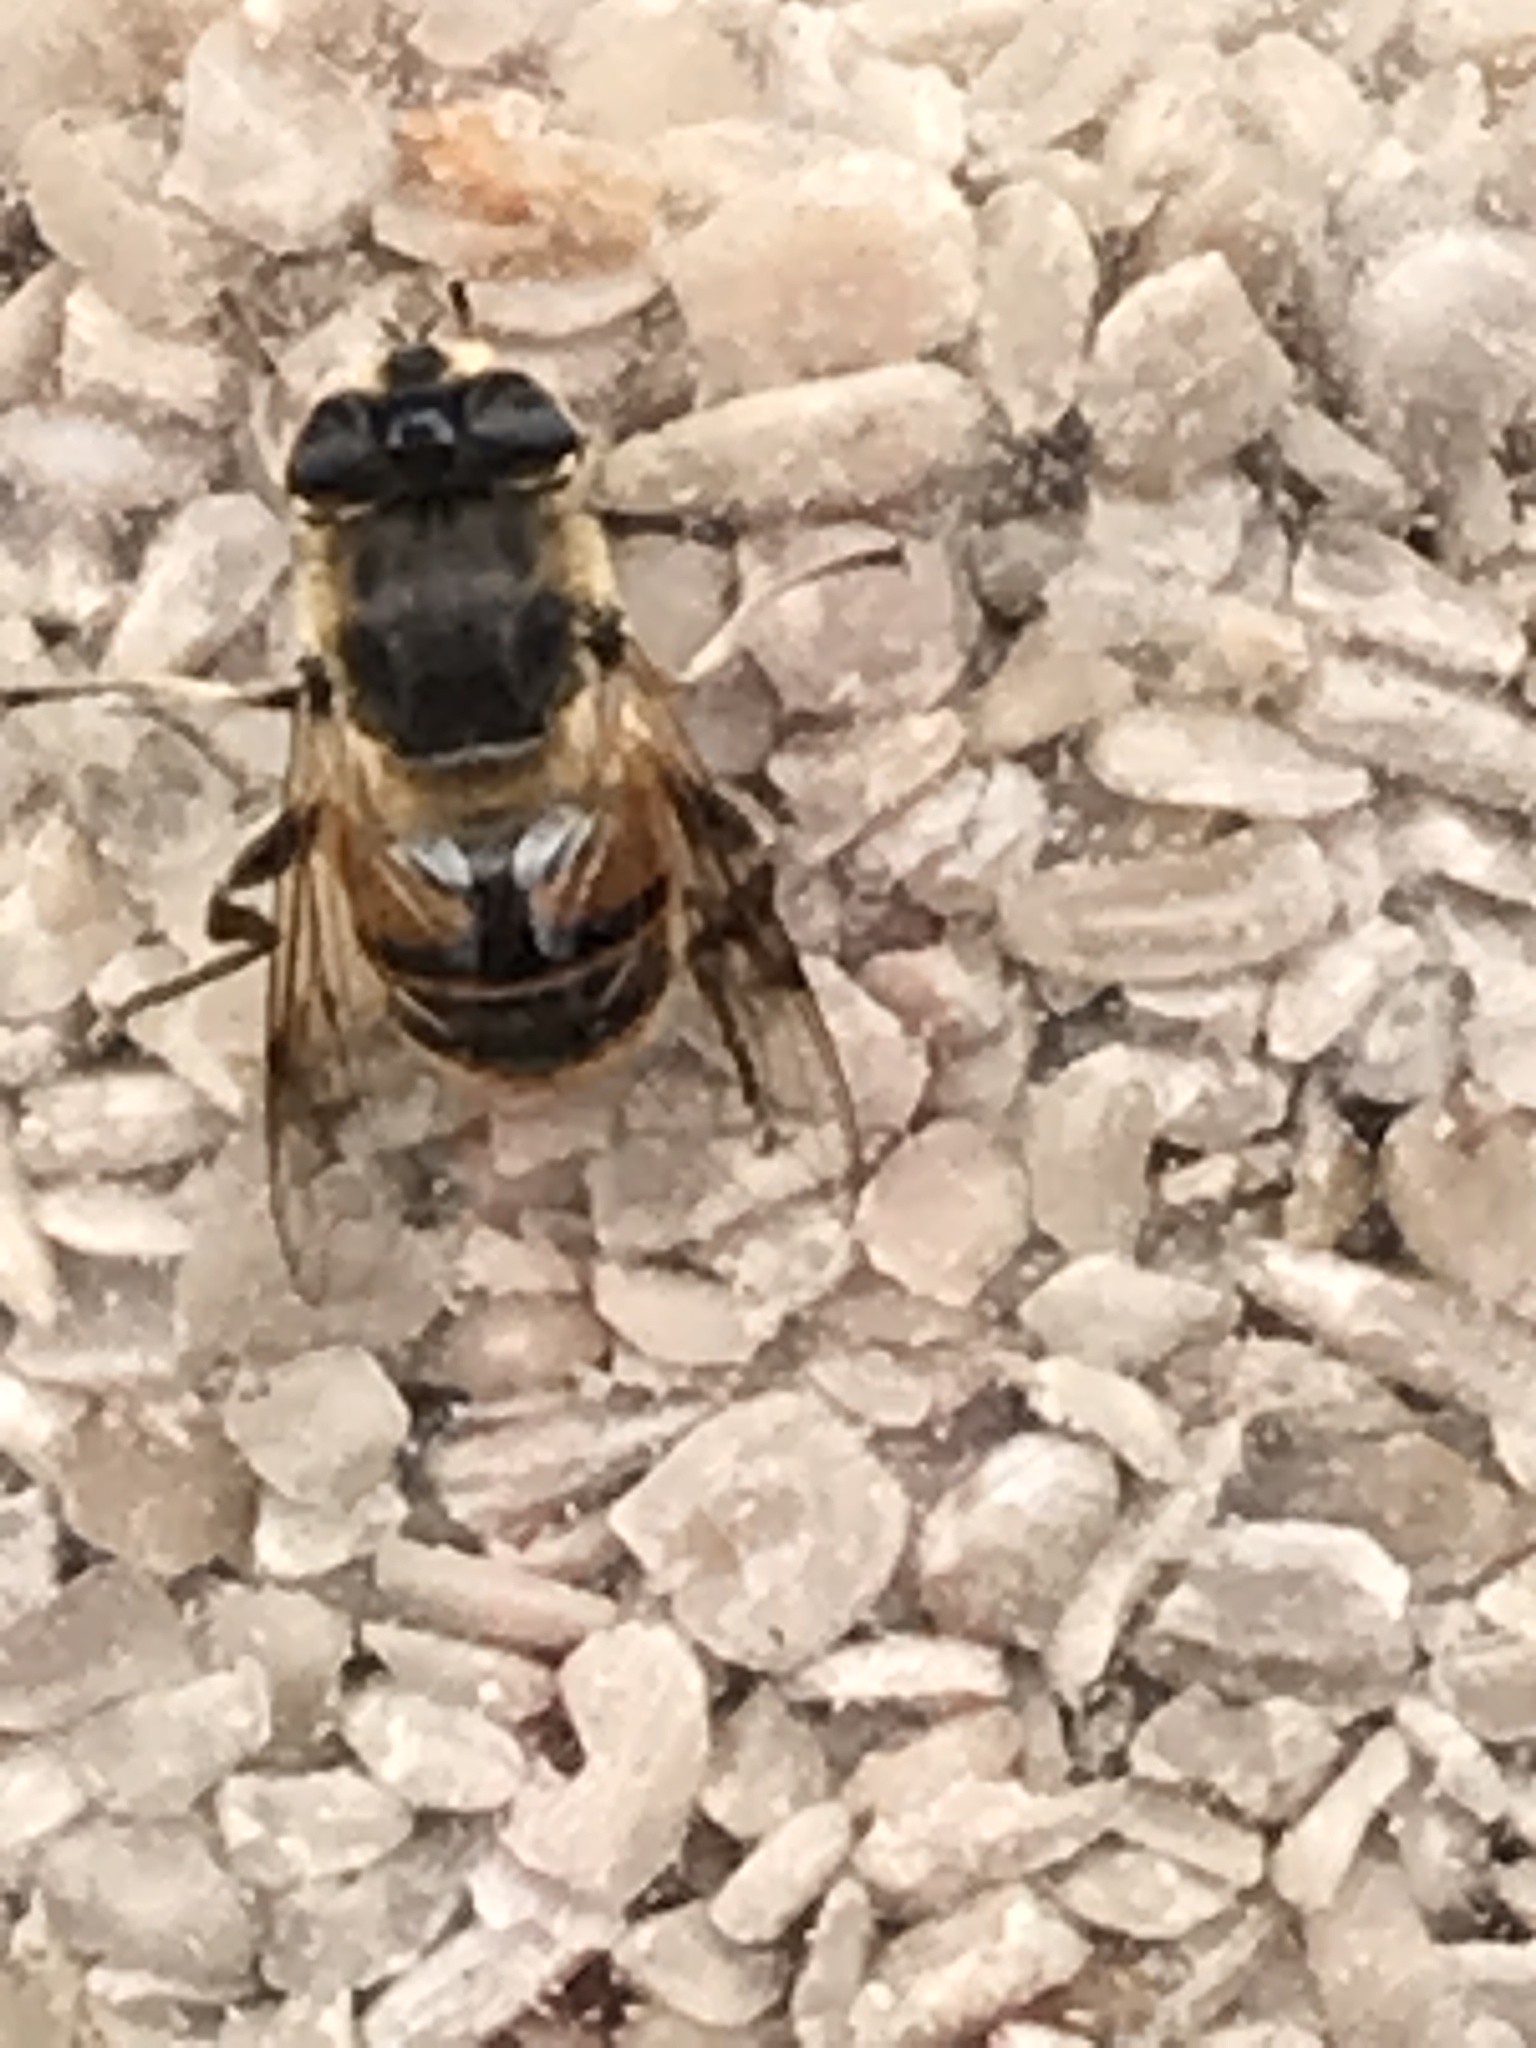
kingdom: Animalia
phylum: Arthropoda
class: Insecta
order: Diptera
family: Syrphidae
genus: Eristalis
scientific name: Eristalis tenax
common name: Drone fly
